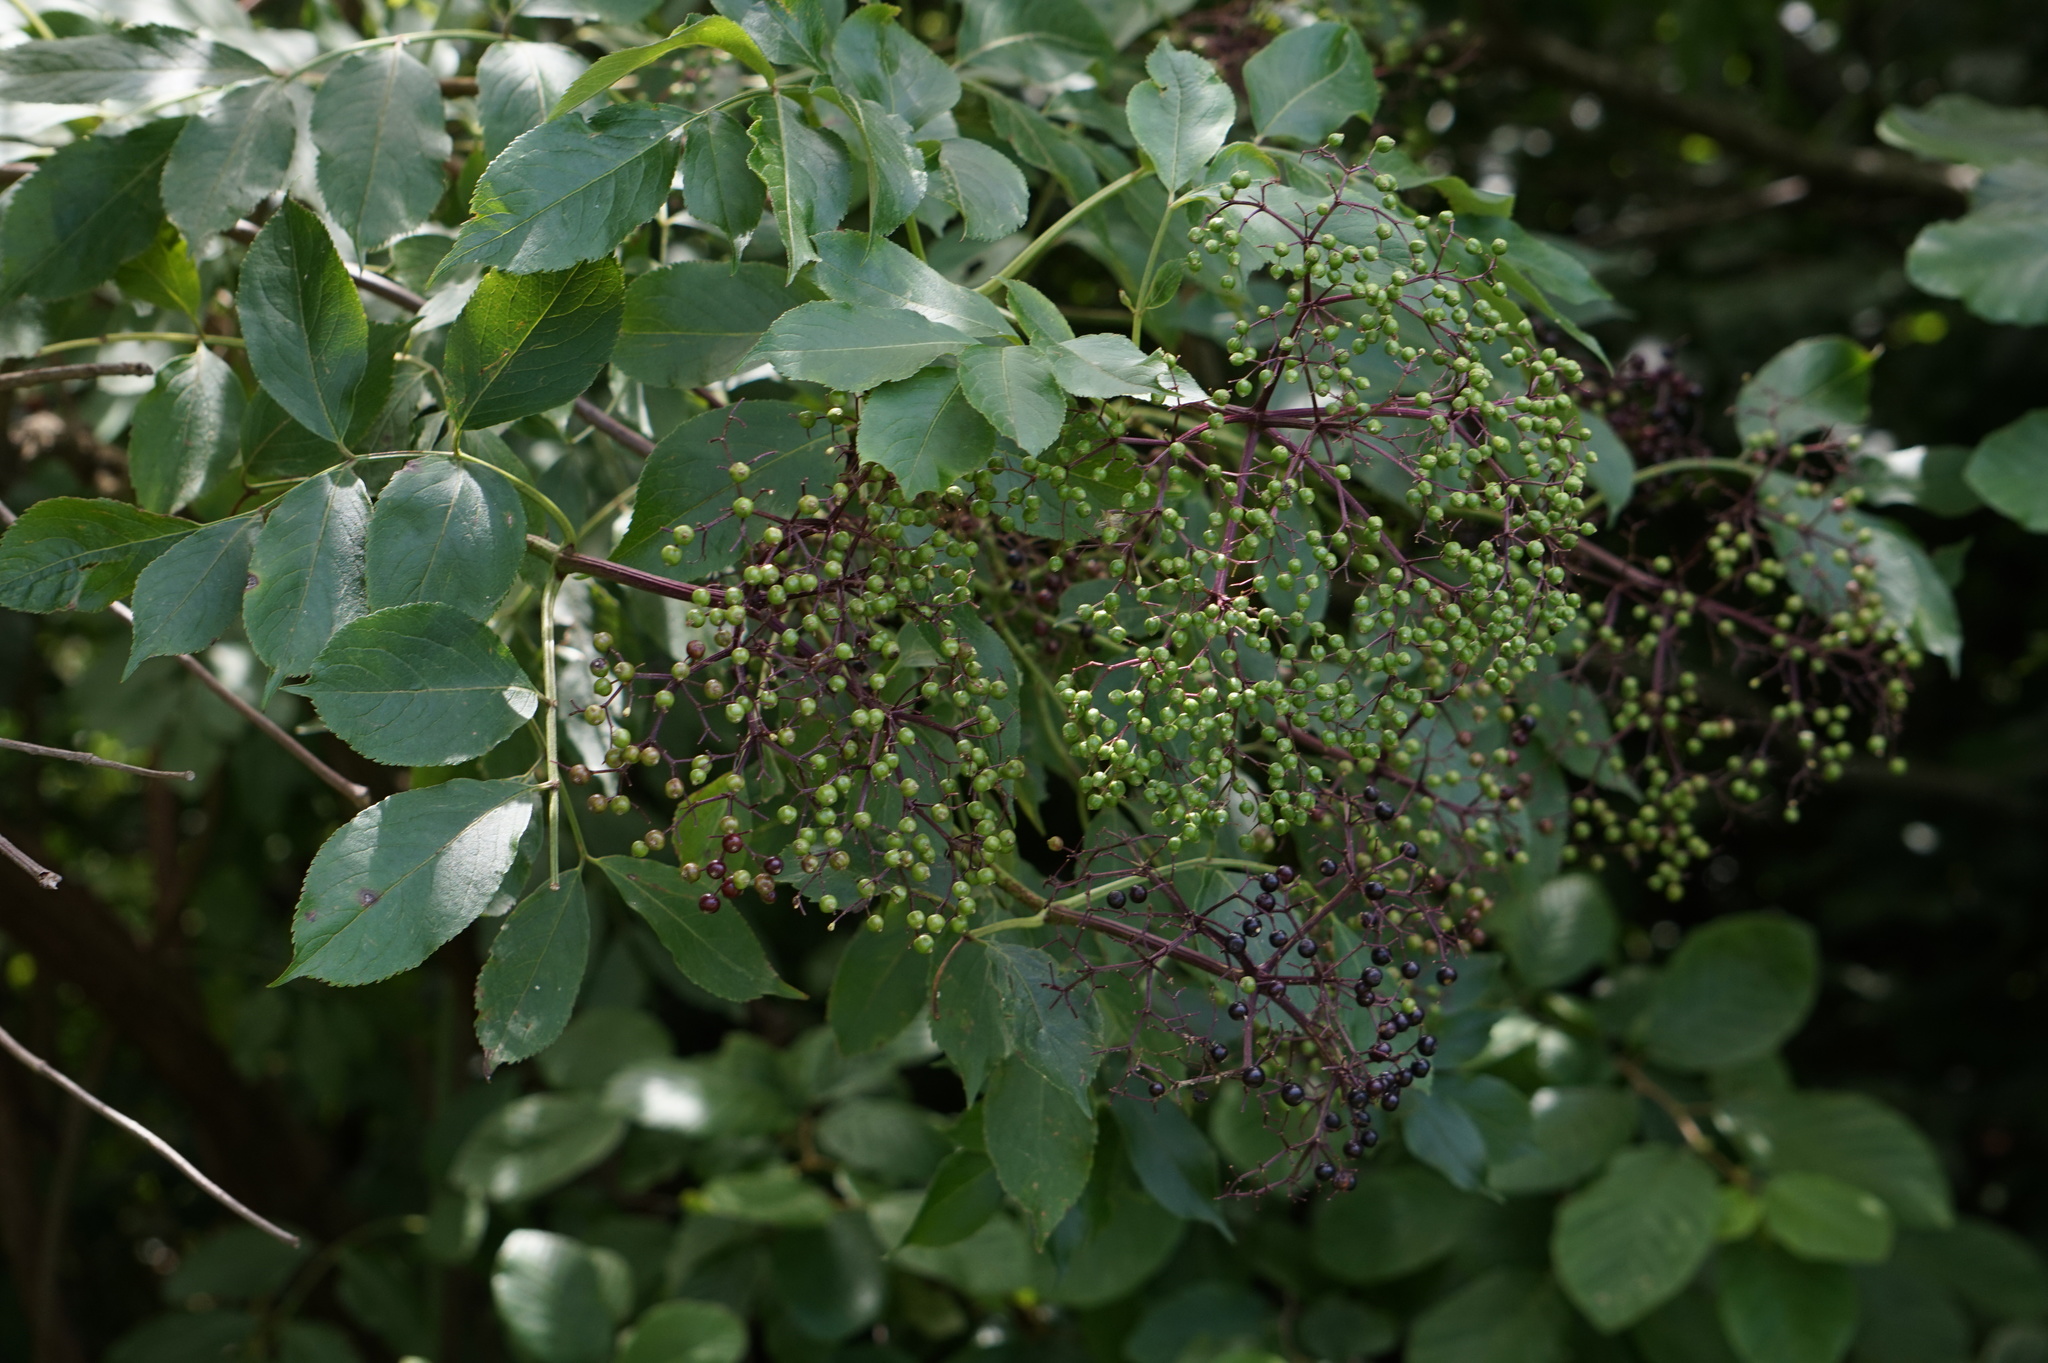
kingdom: Plantae
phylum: Tracheophyta
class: Magnoliopsida
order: Dipsacales
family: Viburnaceae
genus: Sambucus
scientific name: Sambucus canadensis
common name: American elder
